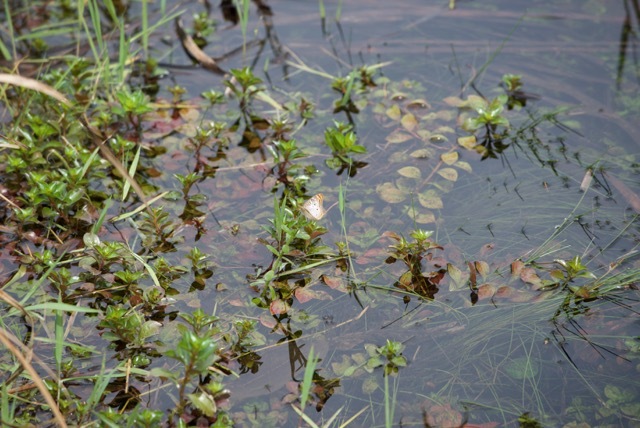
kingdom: Animalia
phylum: Arthropoda
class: Insecta
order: Lepidoptera
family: Nymphalidae
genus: Anartia
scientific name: Anartia jatrophae
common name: White peacock
